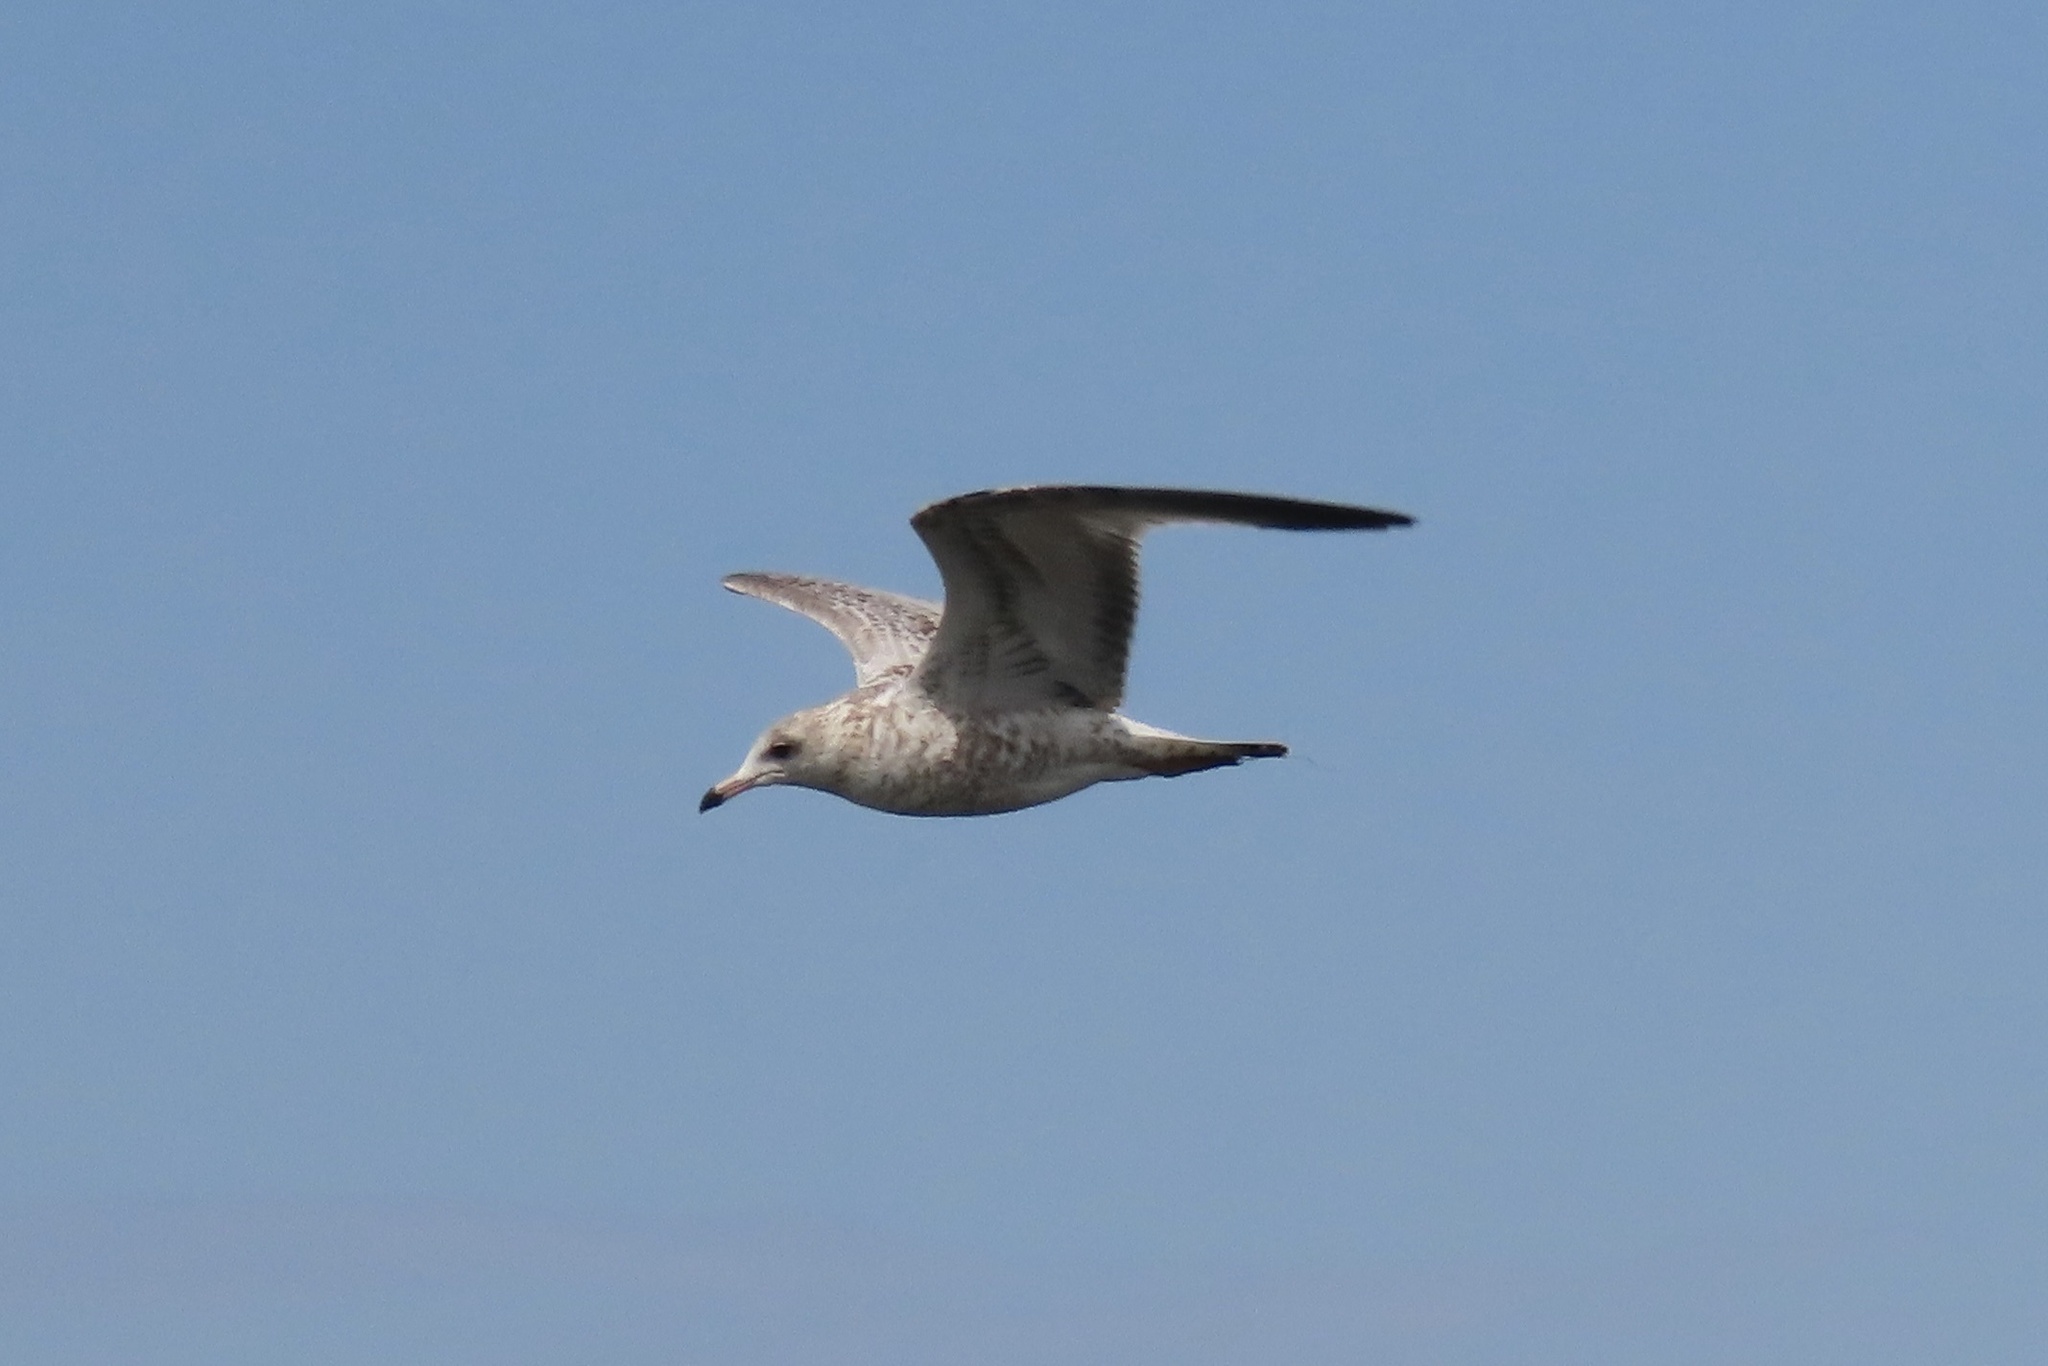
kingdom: Animalia
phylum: Chordata
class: Aves
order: Charadriiformes
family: Laridae
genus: Larus
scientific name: Larus delawarensis
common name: Ring-billed gull
